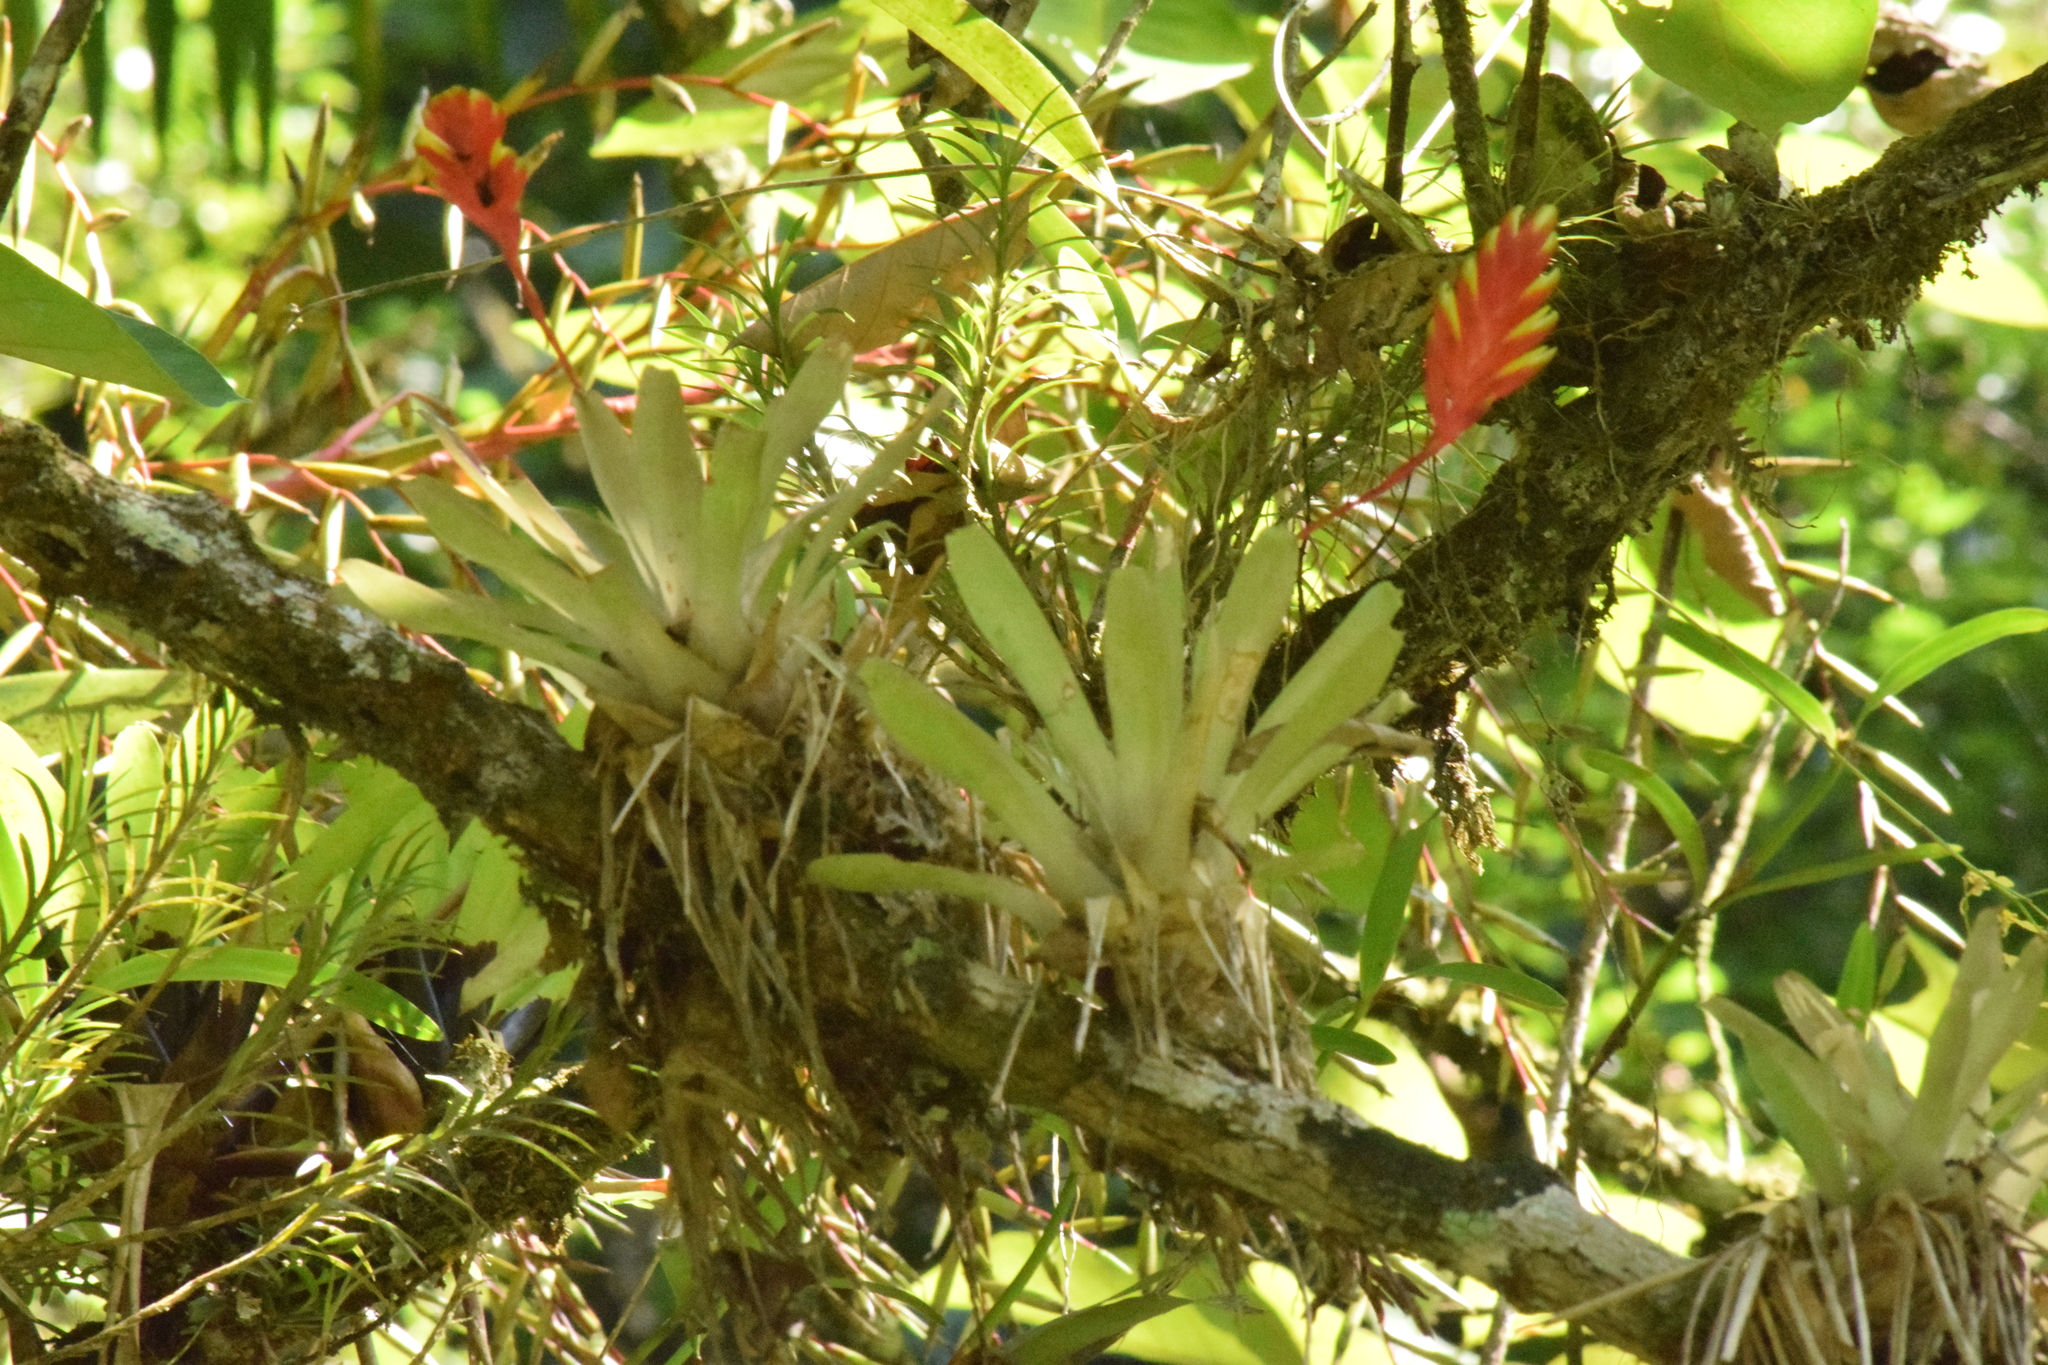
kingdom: Plantae
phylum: Tracheophyta
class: Liliopsida
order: Poales
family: Bromeliaceae
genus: Vriesea
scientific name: Vriesea carinata
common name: Lobster-claws
